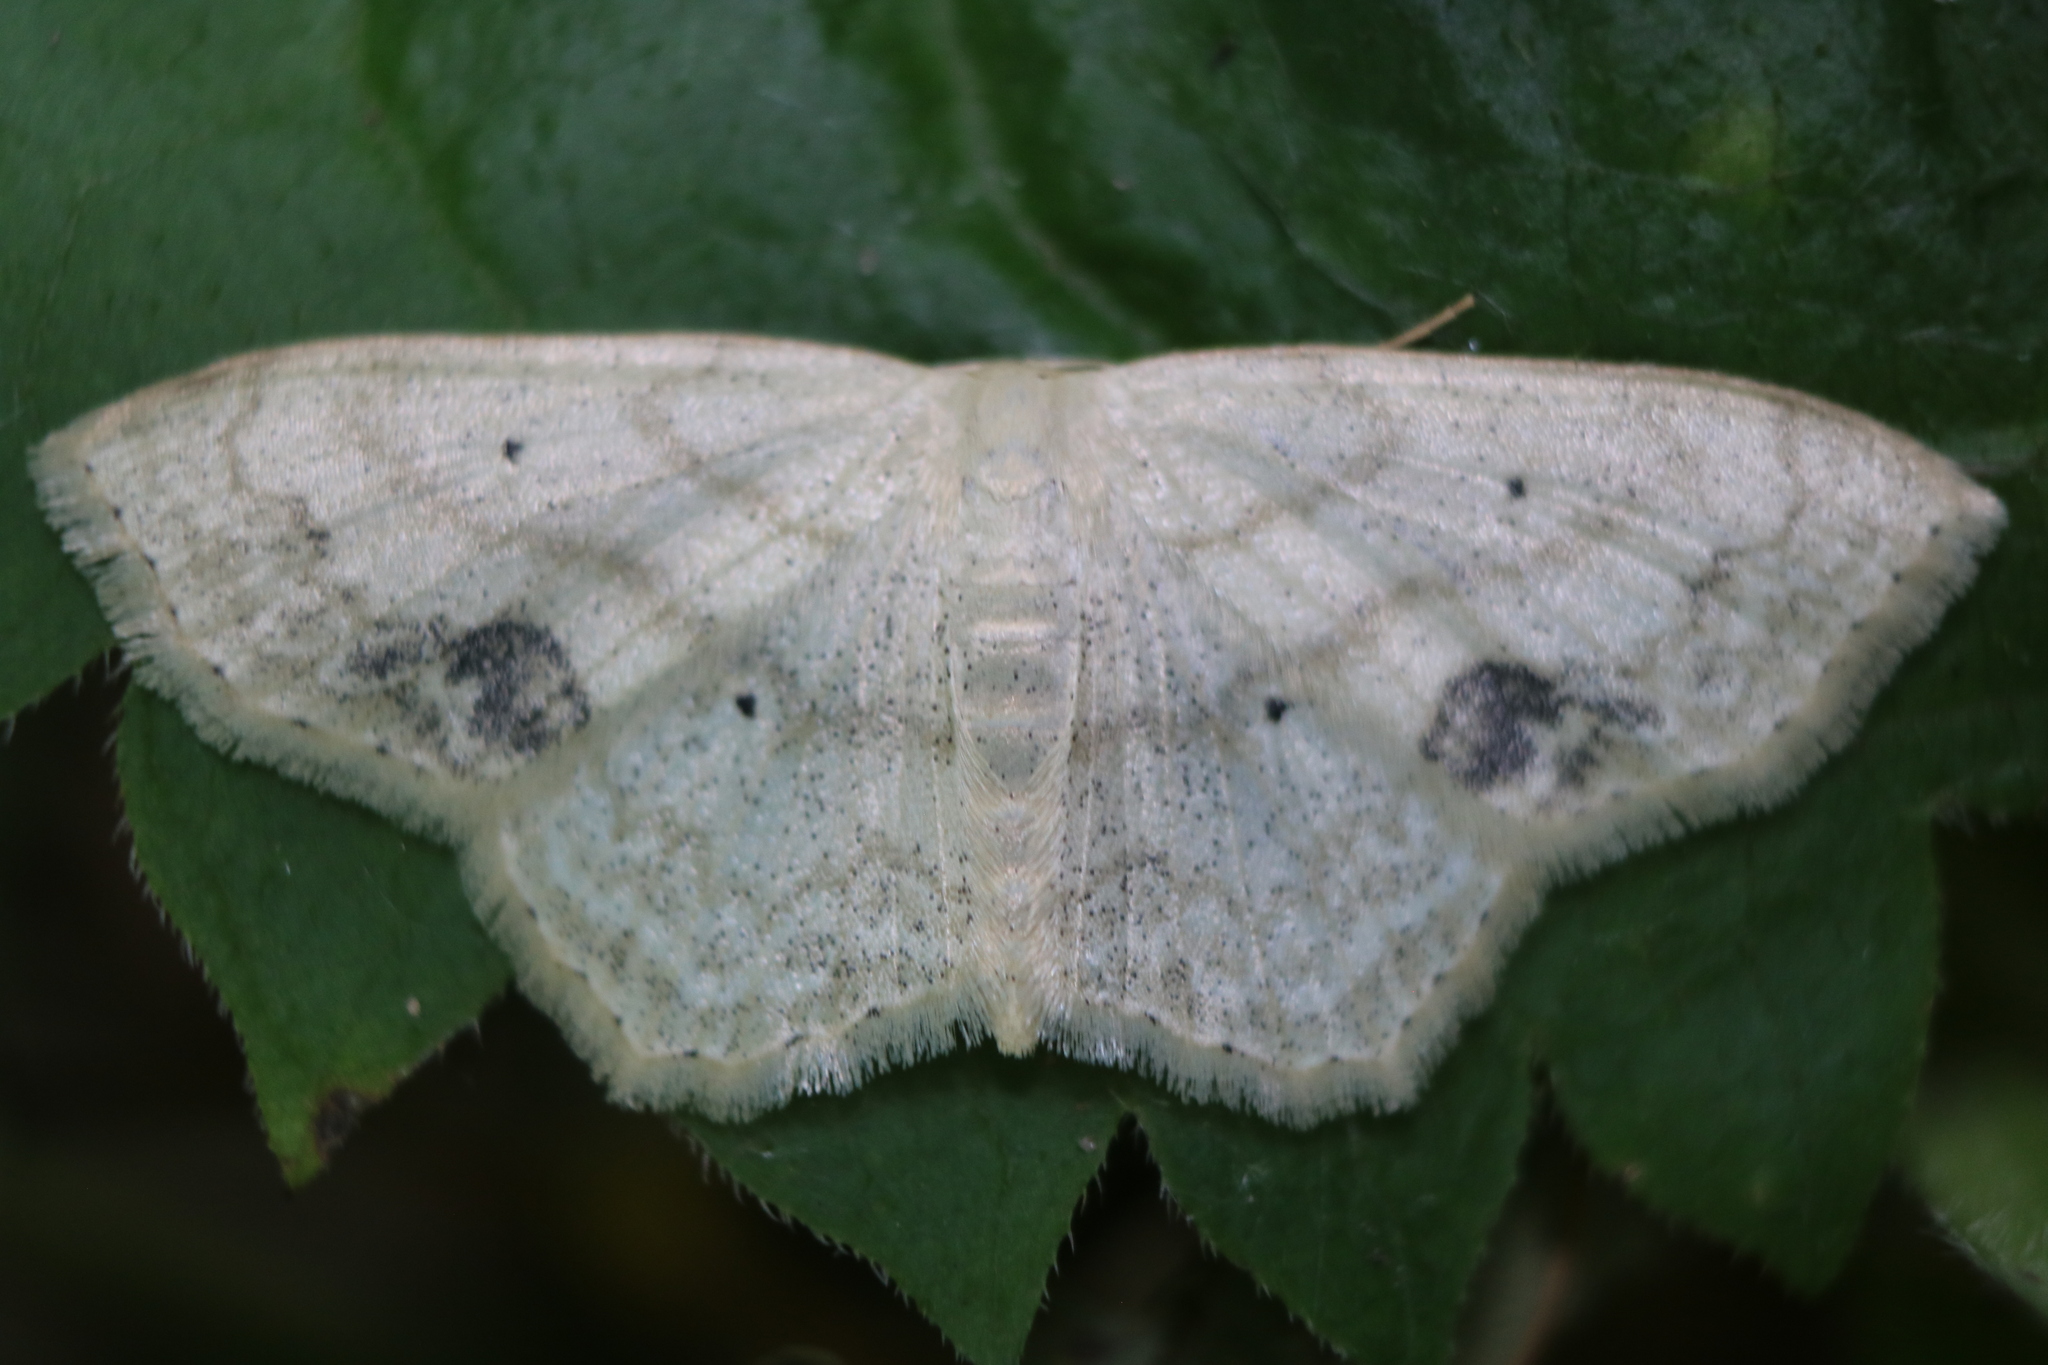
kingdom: Animalia
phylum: Arthropoda
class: Insecta
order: Lepidoptera
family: Geometridae
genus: Scopula
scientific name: Scopula limboundata
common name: Large lace border
